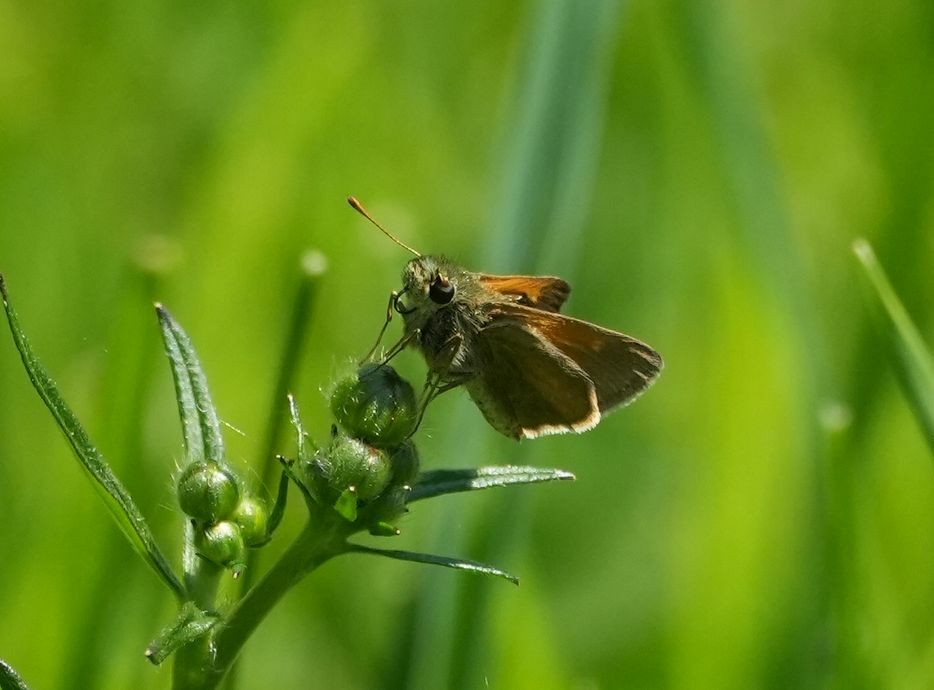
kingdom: Animalia
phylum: Arthropoda
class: Insecta
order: Lepidoptera
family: Hesperiidae
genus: Polites
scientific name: Polites themistocles
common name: Tawny-edged skipper
